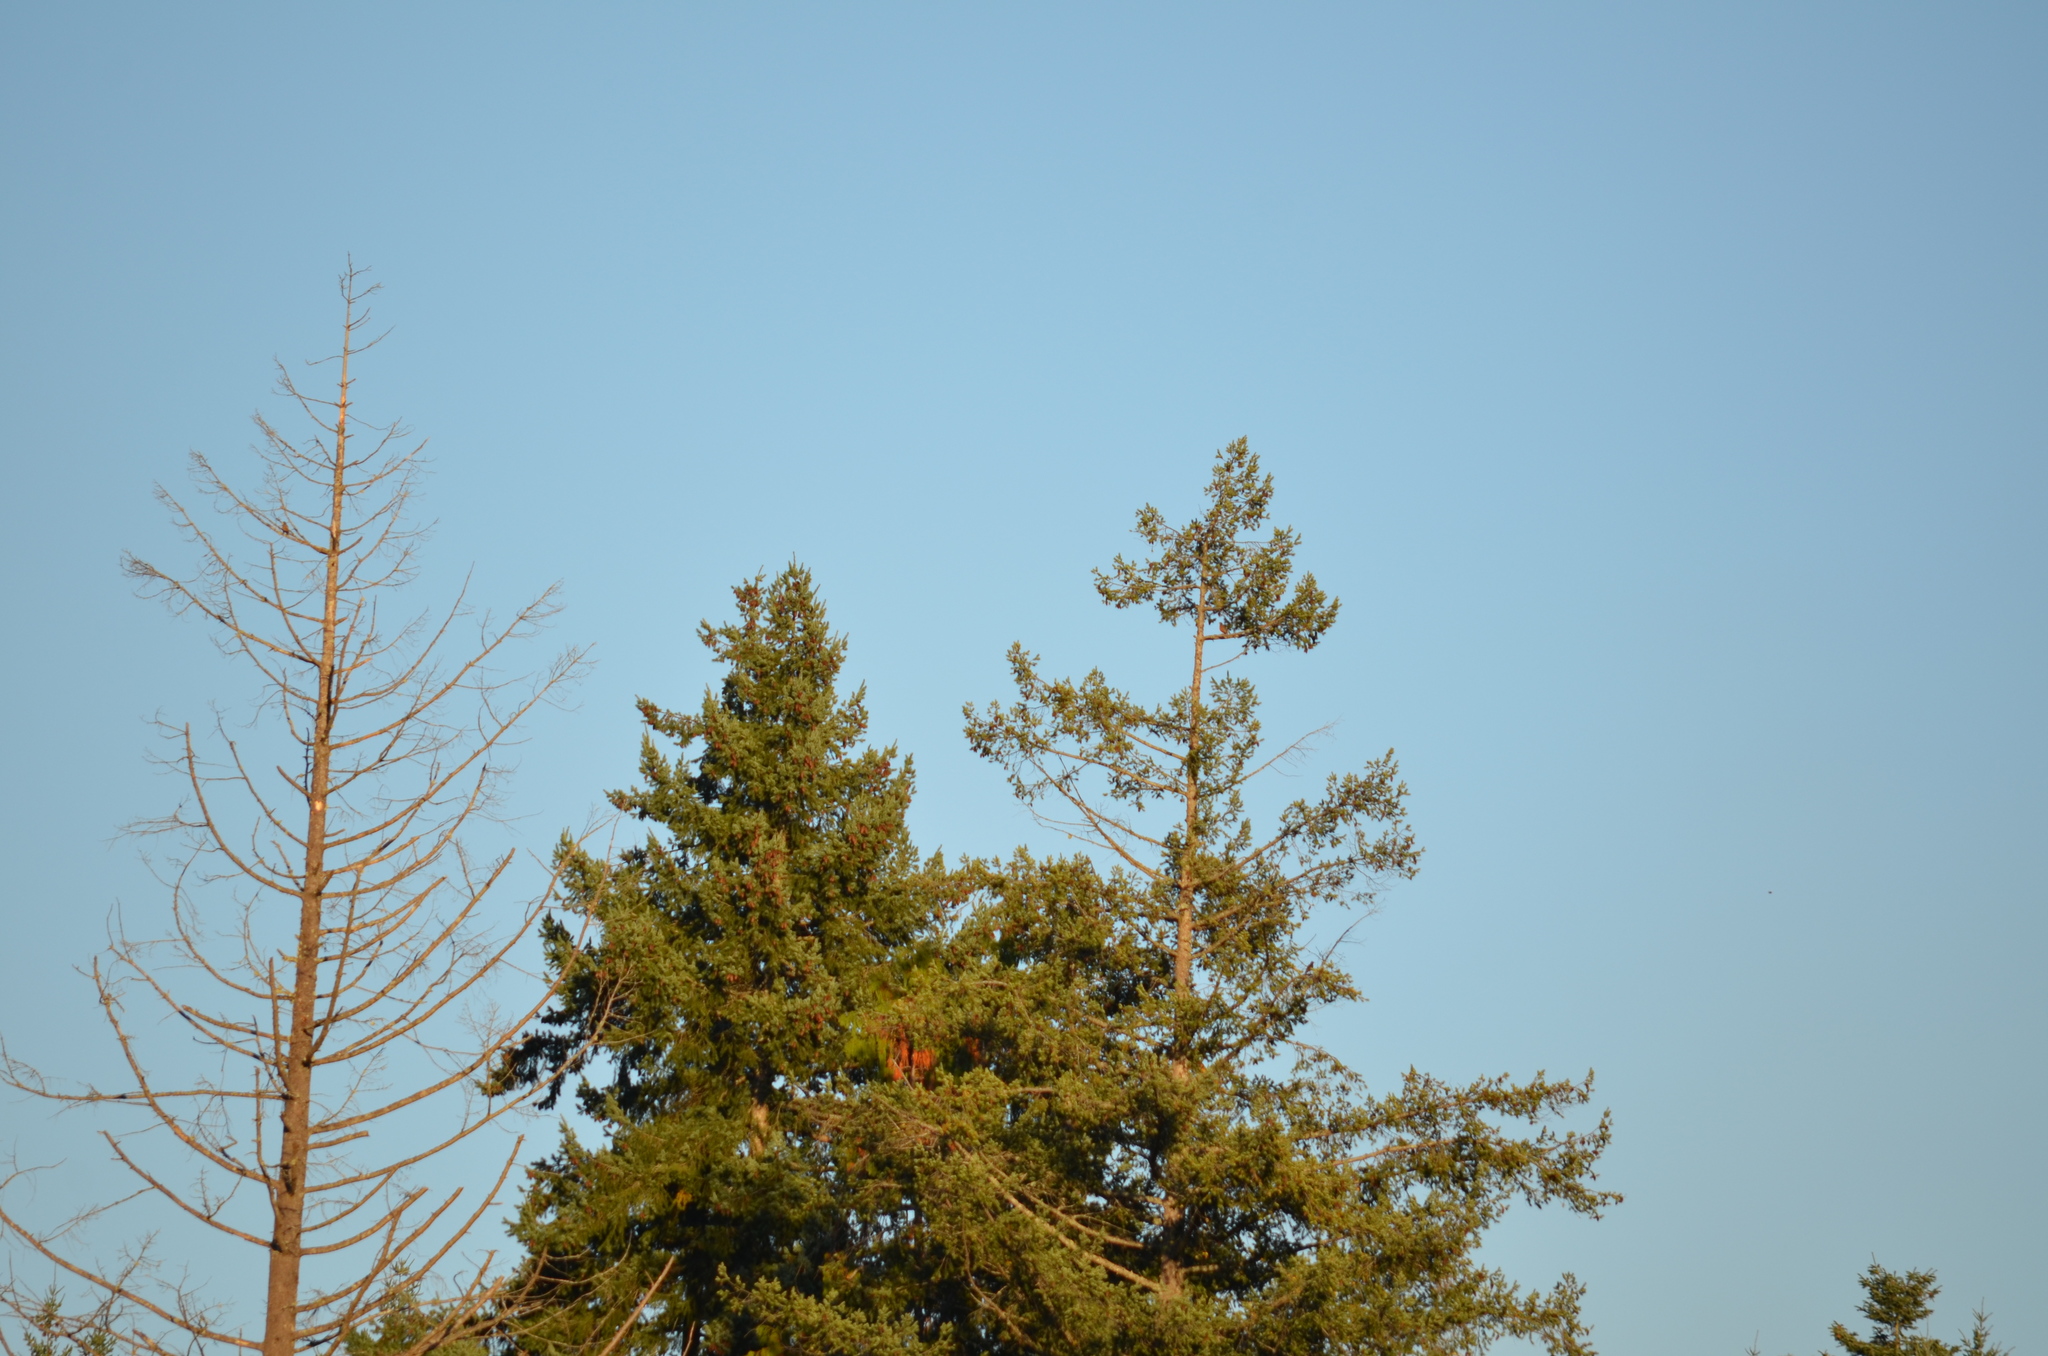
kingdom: Animalia
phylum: Chordata
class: Aves
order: Passeriformes
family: Turdidae
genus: Turdus
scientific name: Turdus migratorius
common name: American robin
